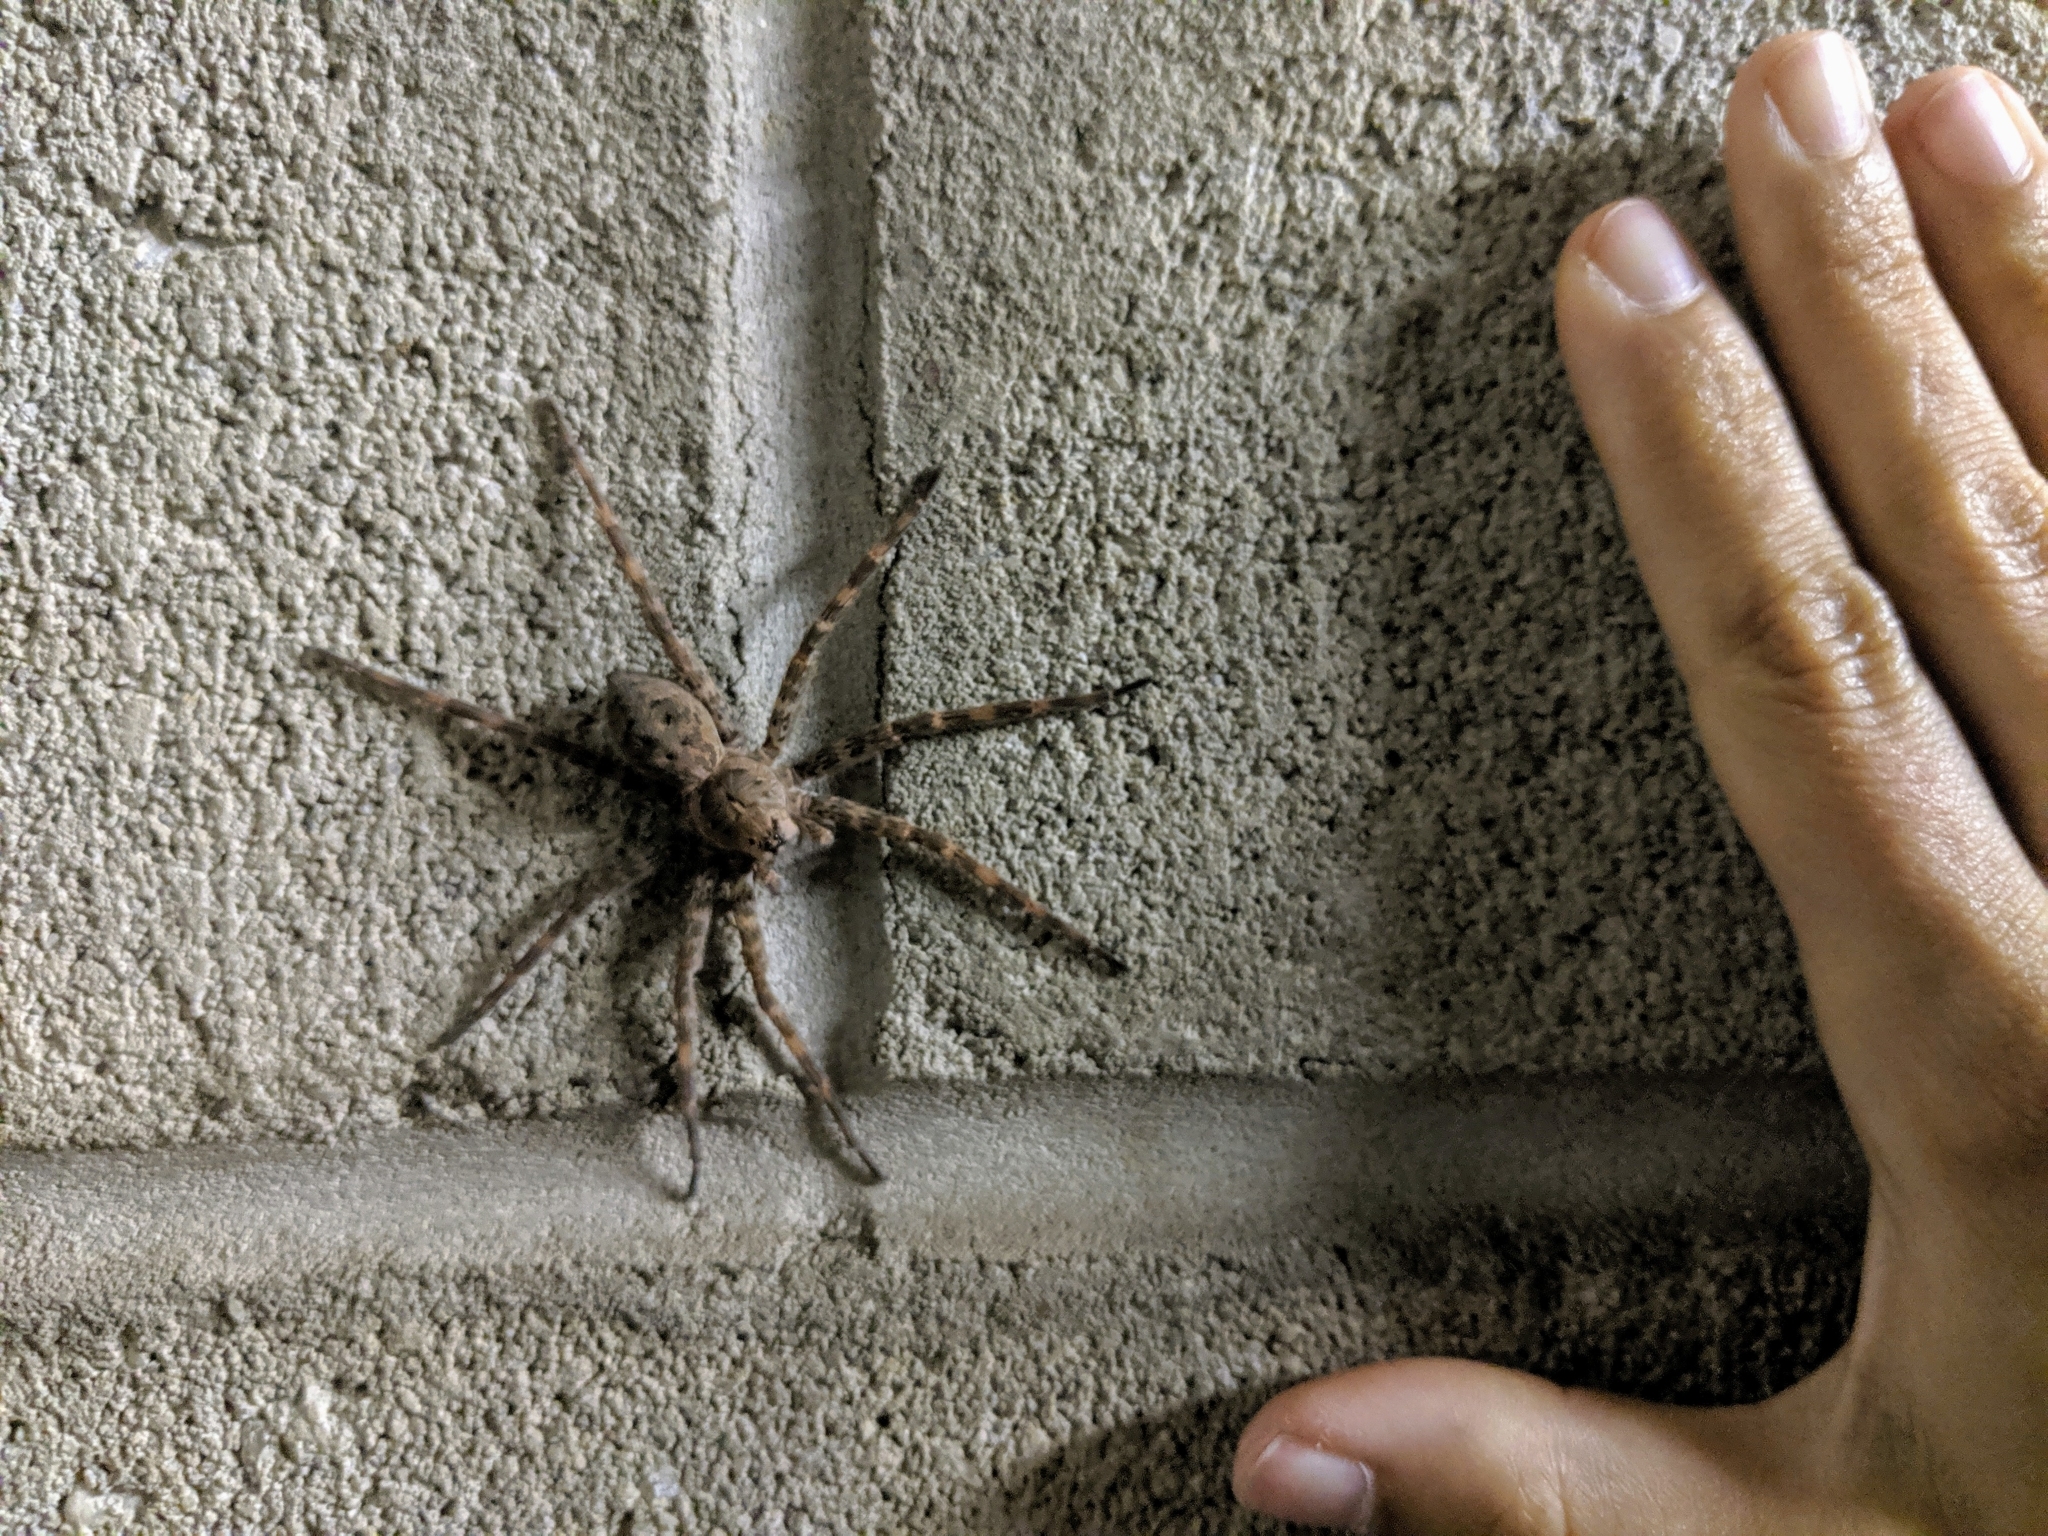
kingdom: Animalia
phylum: Arthropoda
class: Arachnida
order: Araneae
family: Pisauridae
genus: Dolomedes
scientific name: Dolomedes tenebrosus
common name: Dark fishing spider
